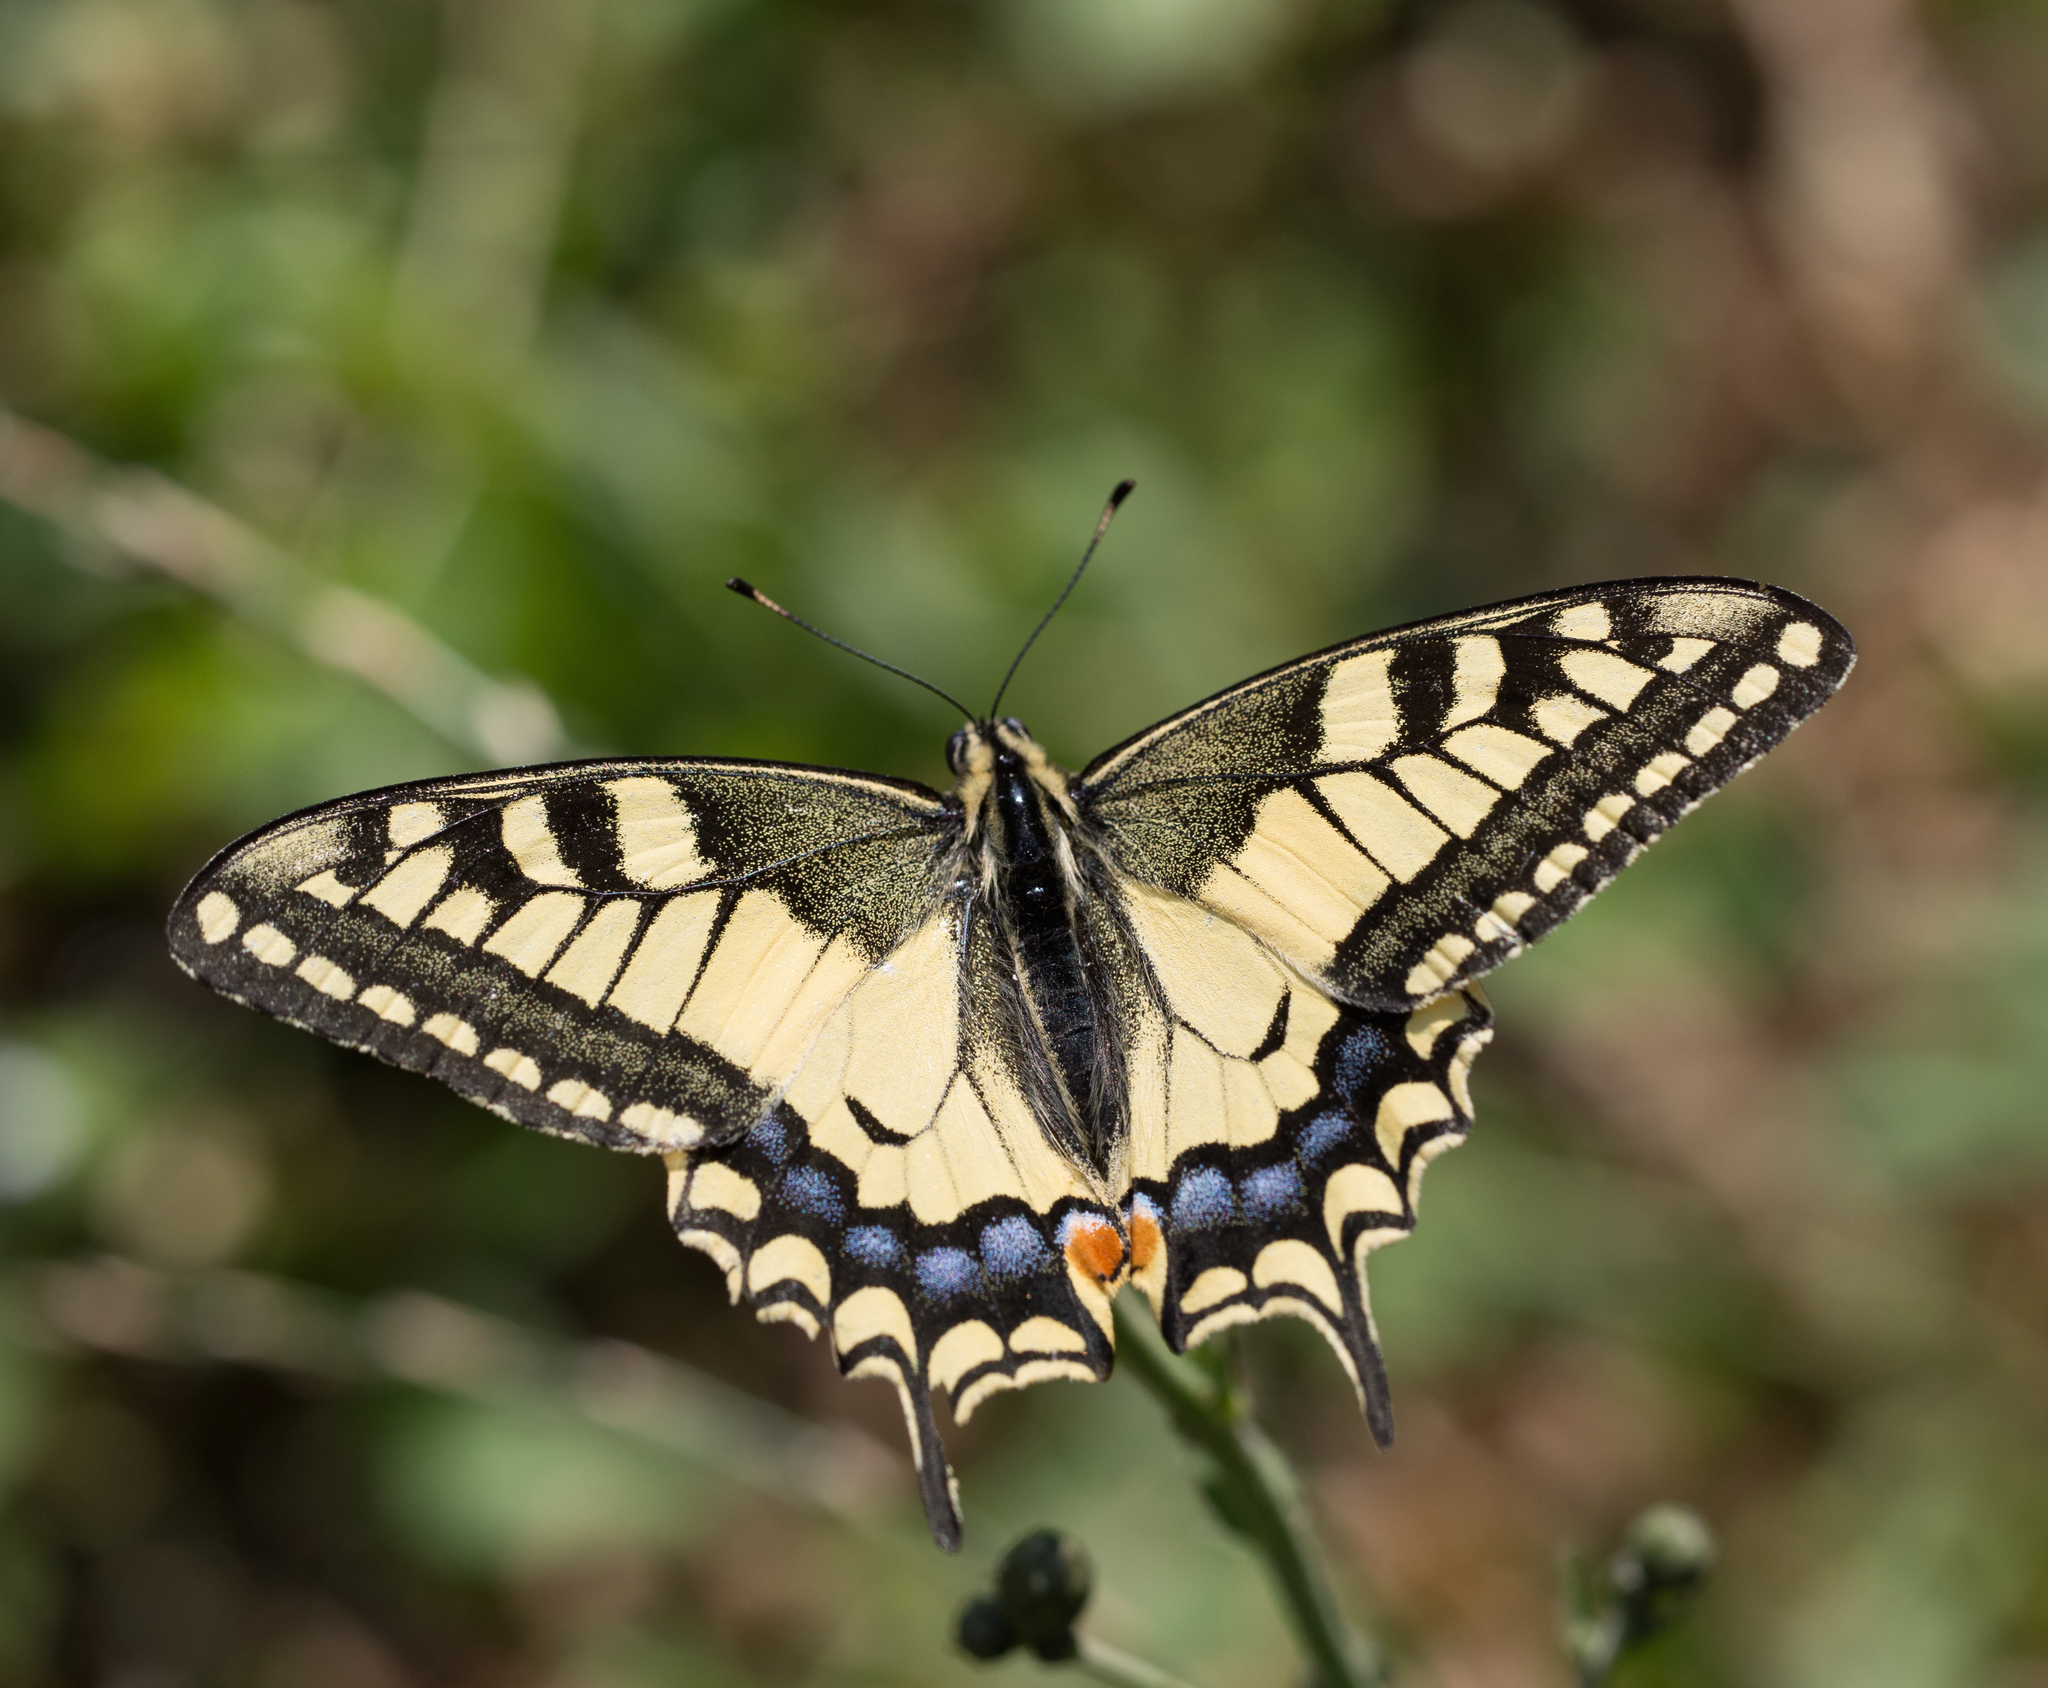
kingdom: Animalia
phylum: Arthropoda
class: Insecta
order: Lepidoptera
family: Papilionidae
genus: Papilio
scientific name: Papilio machaon
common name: Swallowtail
